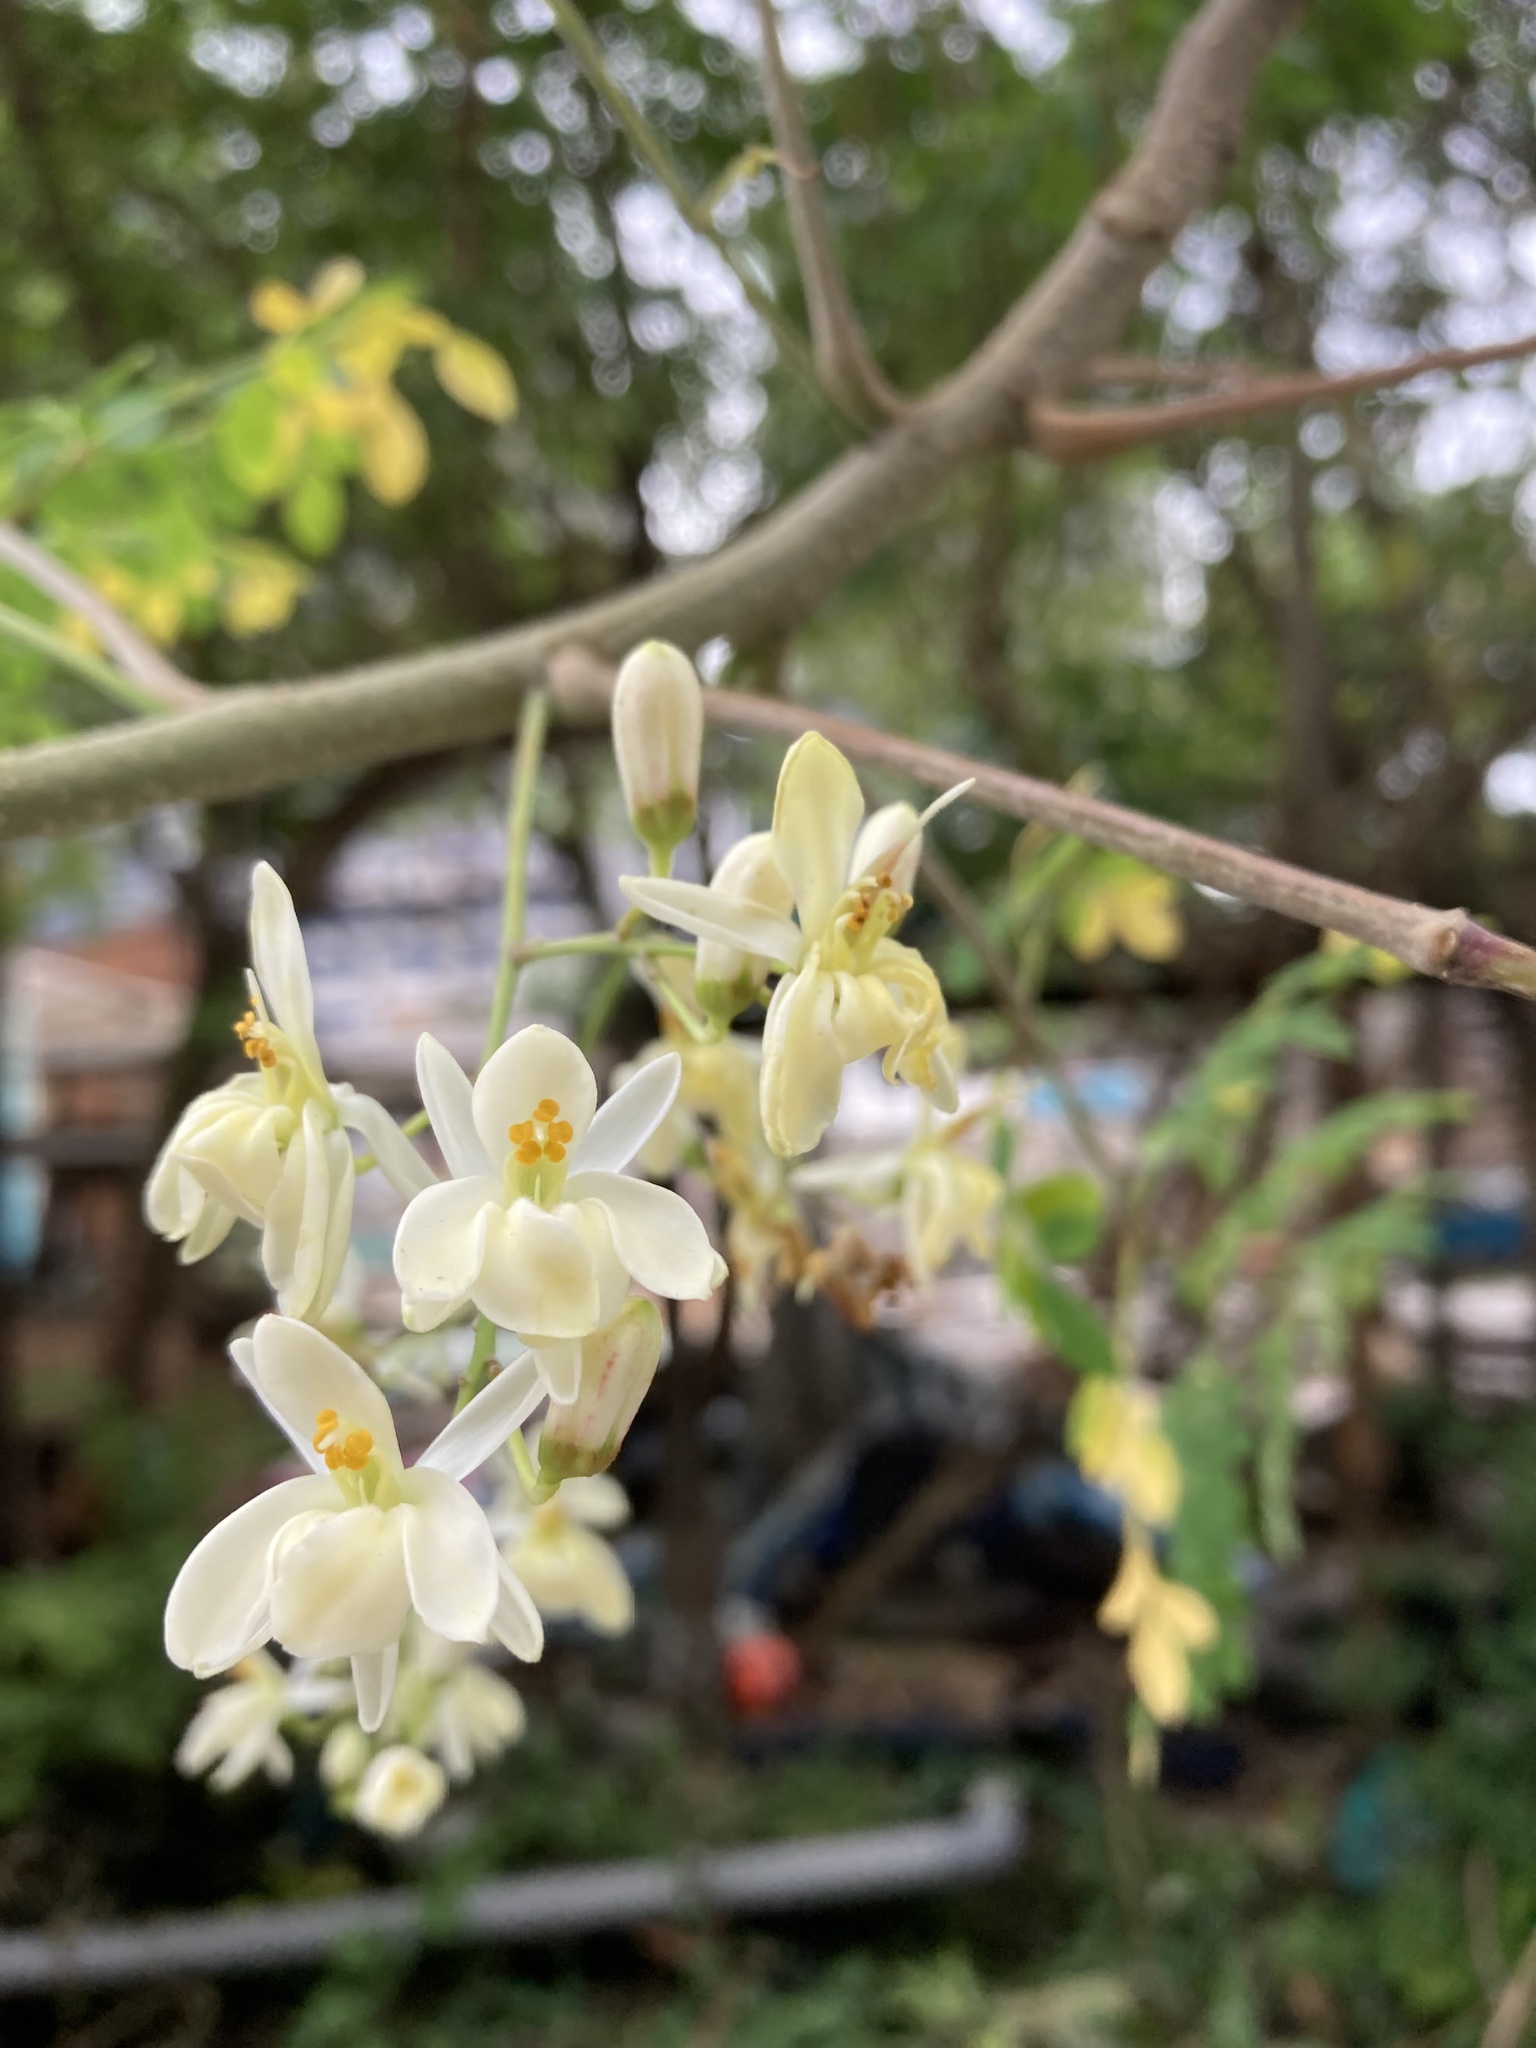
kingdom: Plantae
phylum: Tracheophyta
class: Magnoliopsida
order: Brassicales
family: Moringaceae
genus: Moringa
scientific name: Moringa oleifera
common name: Horseradish-tree
